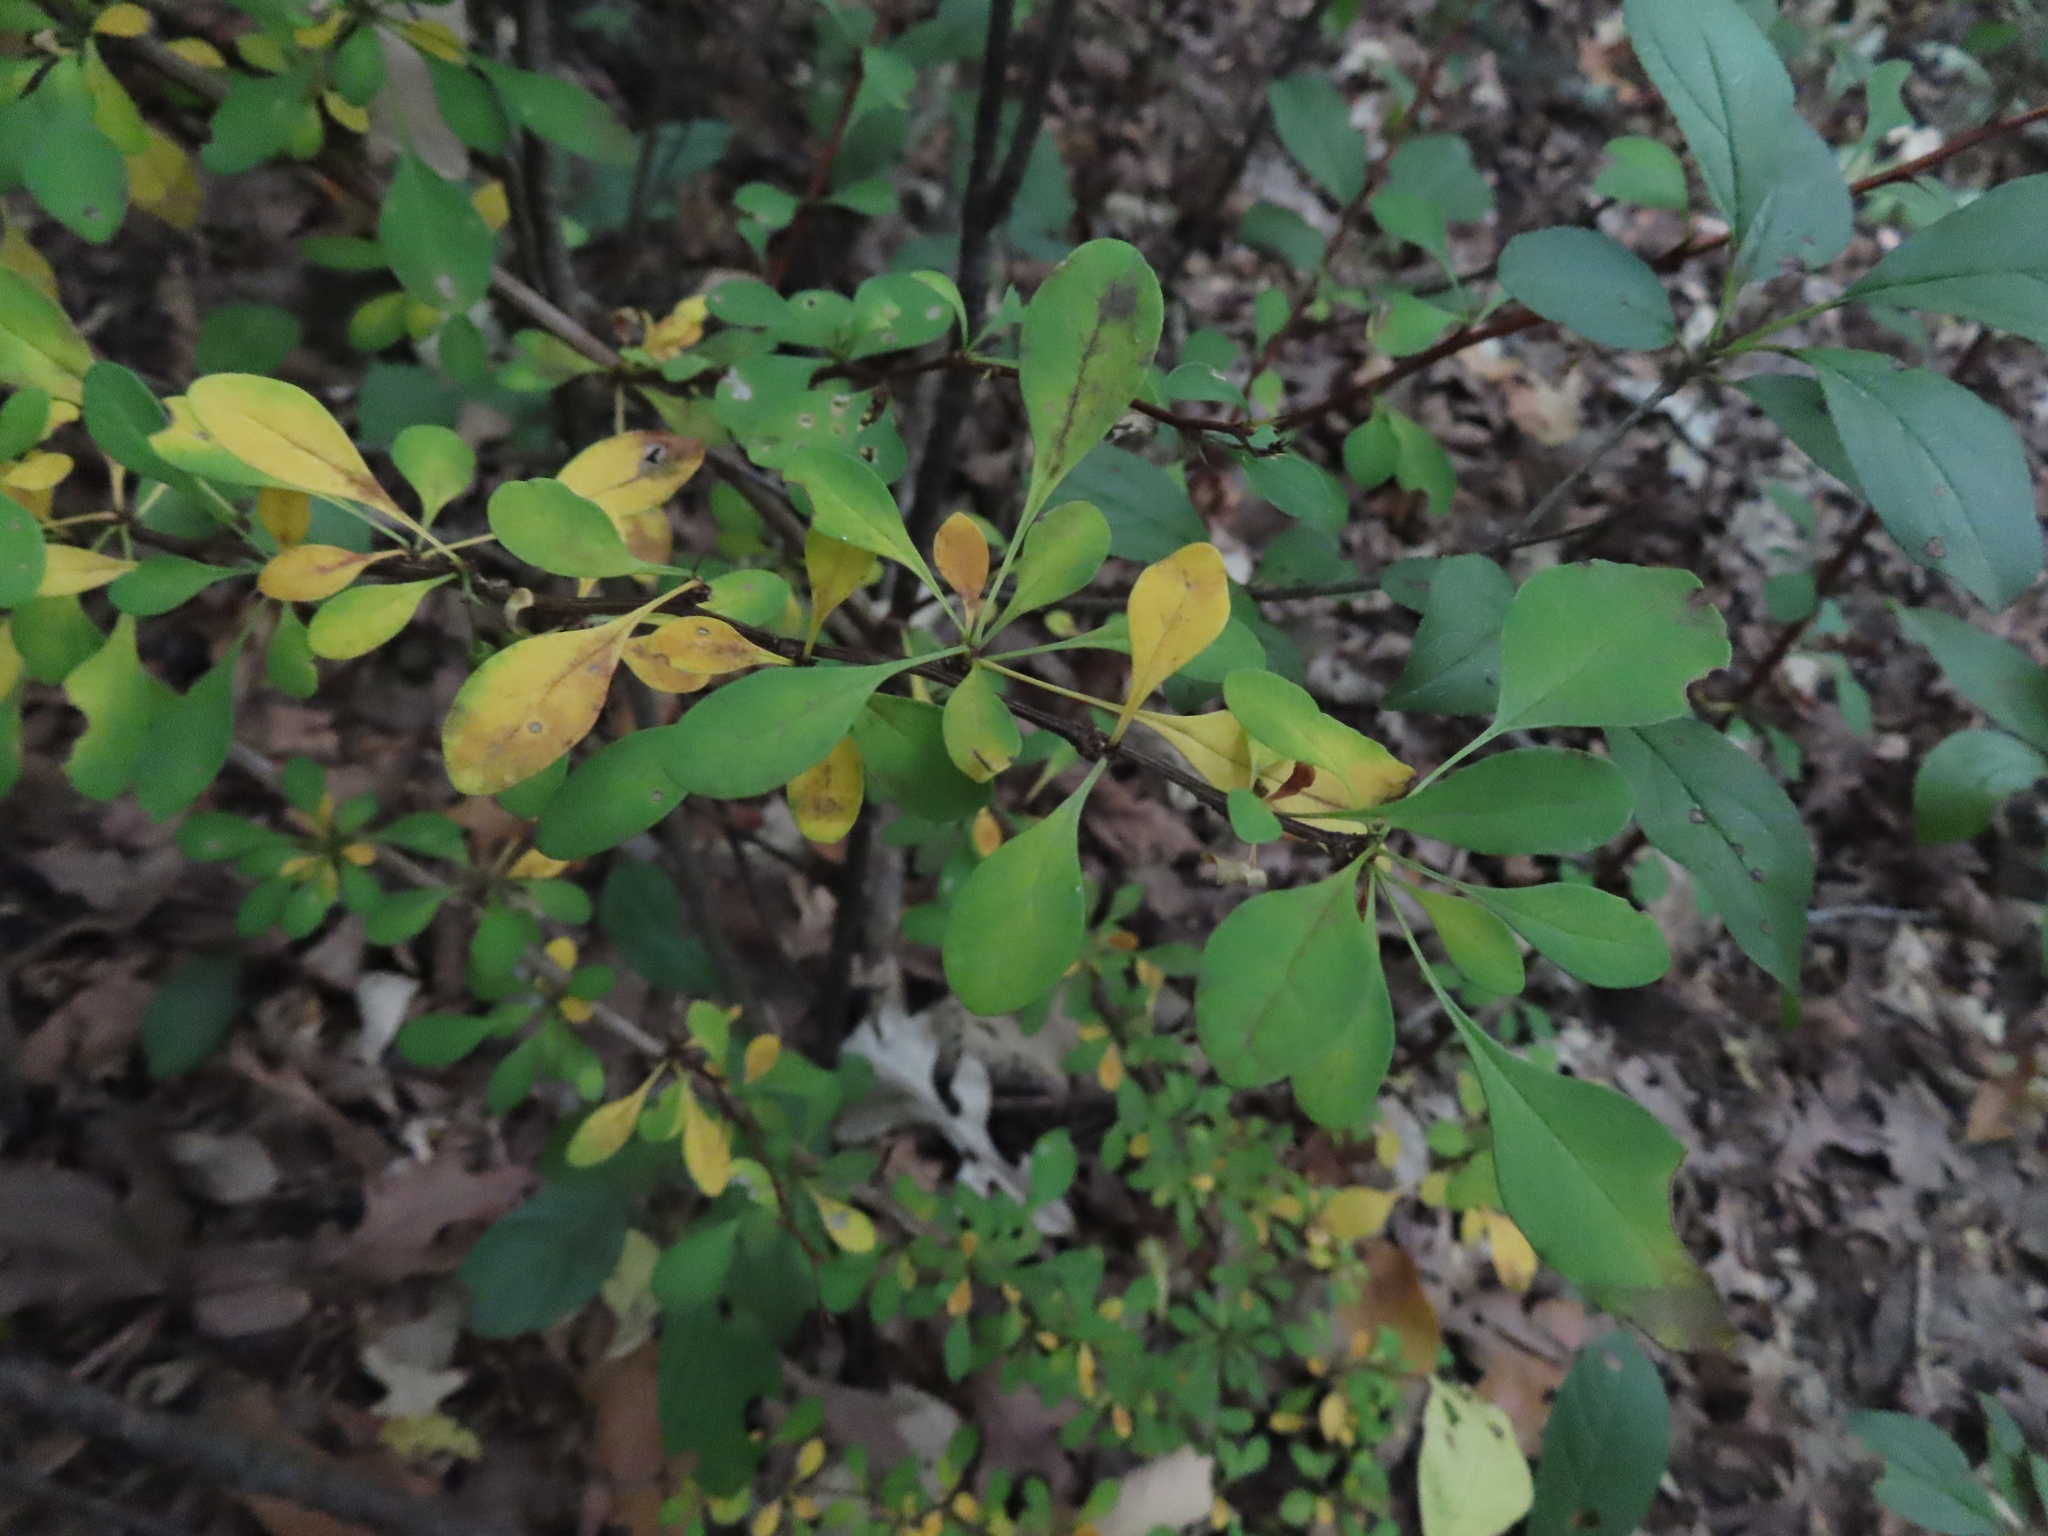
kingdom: Plantae
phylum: Tracheophyta
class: Magnoliopsida
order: Ranunculales
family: Berberidaceae
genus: Berberis
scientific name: Berberis thunbergii
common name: Japanese barberry
